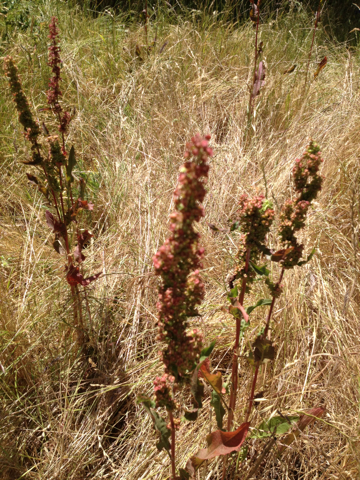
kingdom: Plantae
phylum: Tracheophyta
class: Magnoliopsida
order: Caryophyllales
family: Polygonaceae
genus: Rumex
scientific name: Rumex crispus
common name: Curled dock
